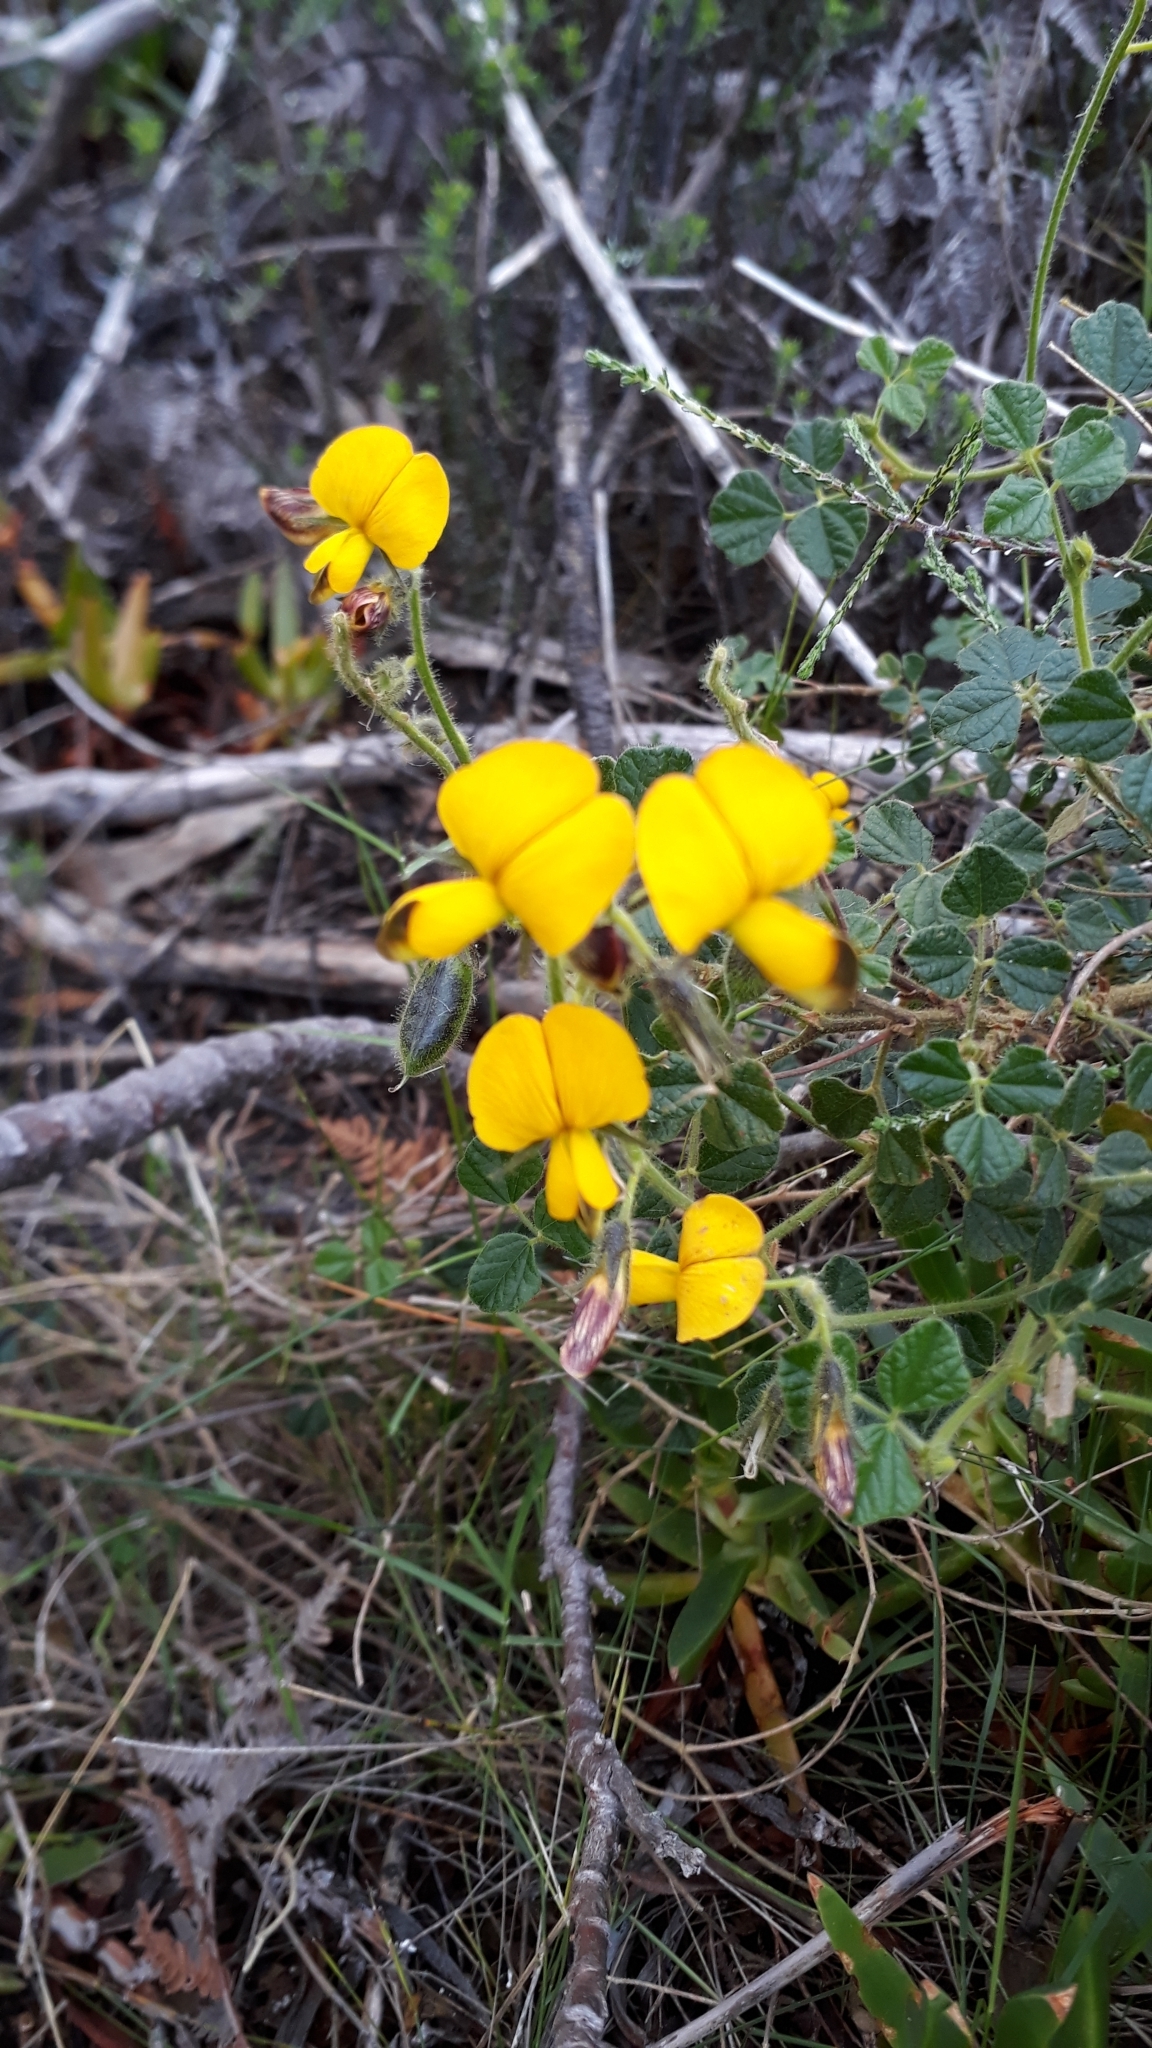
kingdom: Plantae
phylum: Tracheophyta
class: Magnoliopsida
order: Fabales
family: Fabaceae
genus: Bolusafra
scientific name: Bolusafra bituminosa
